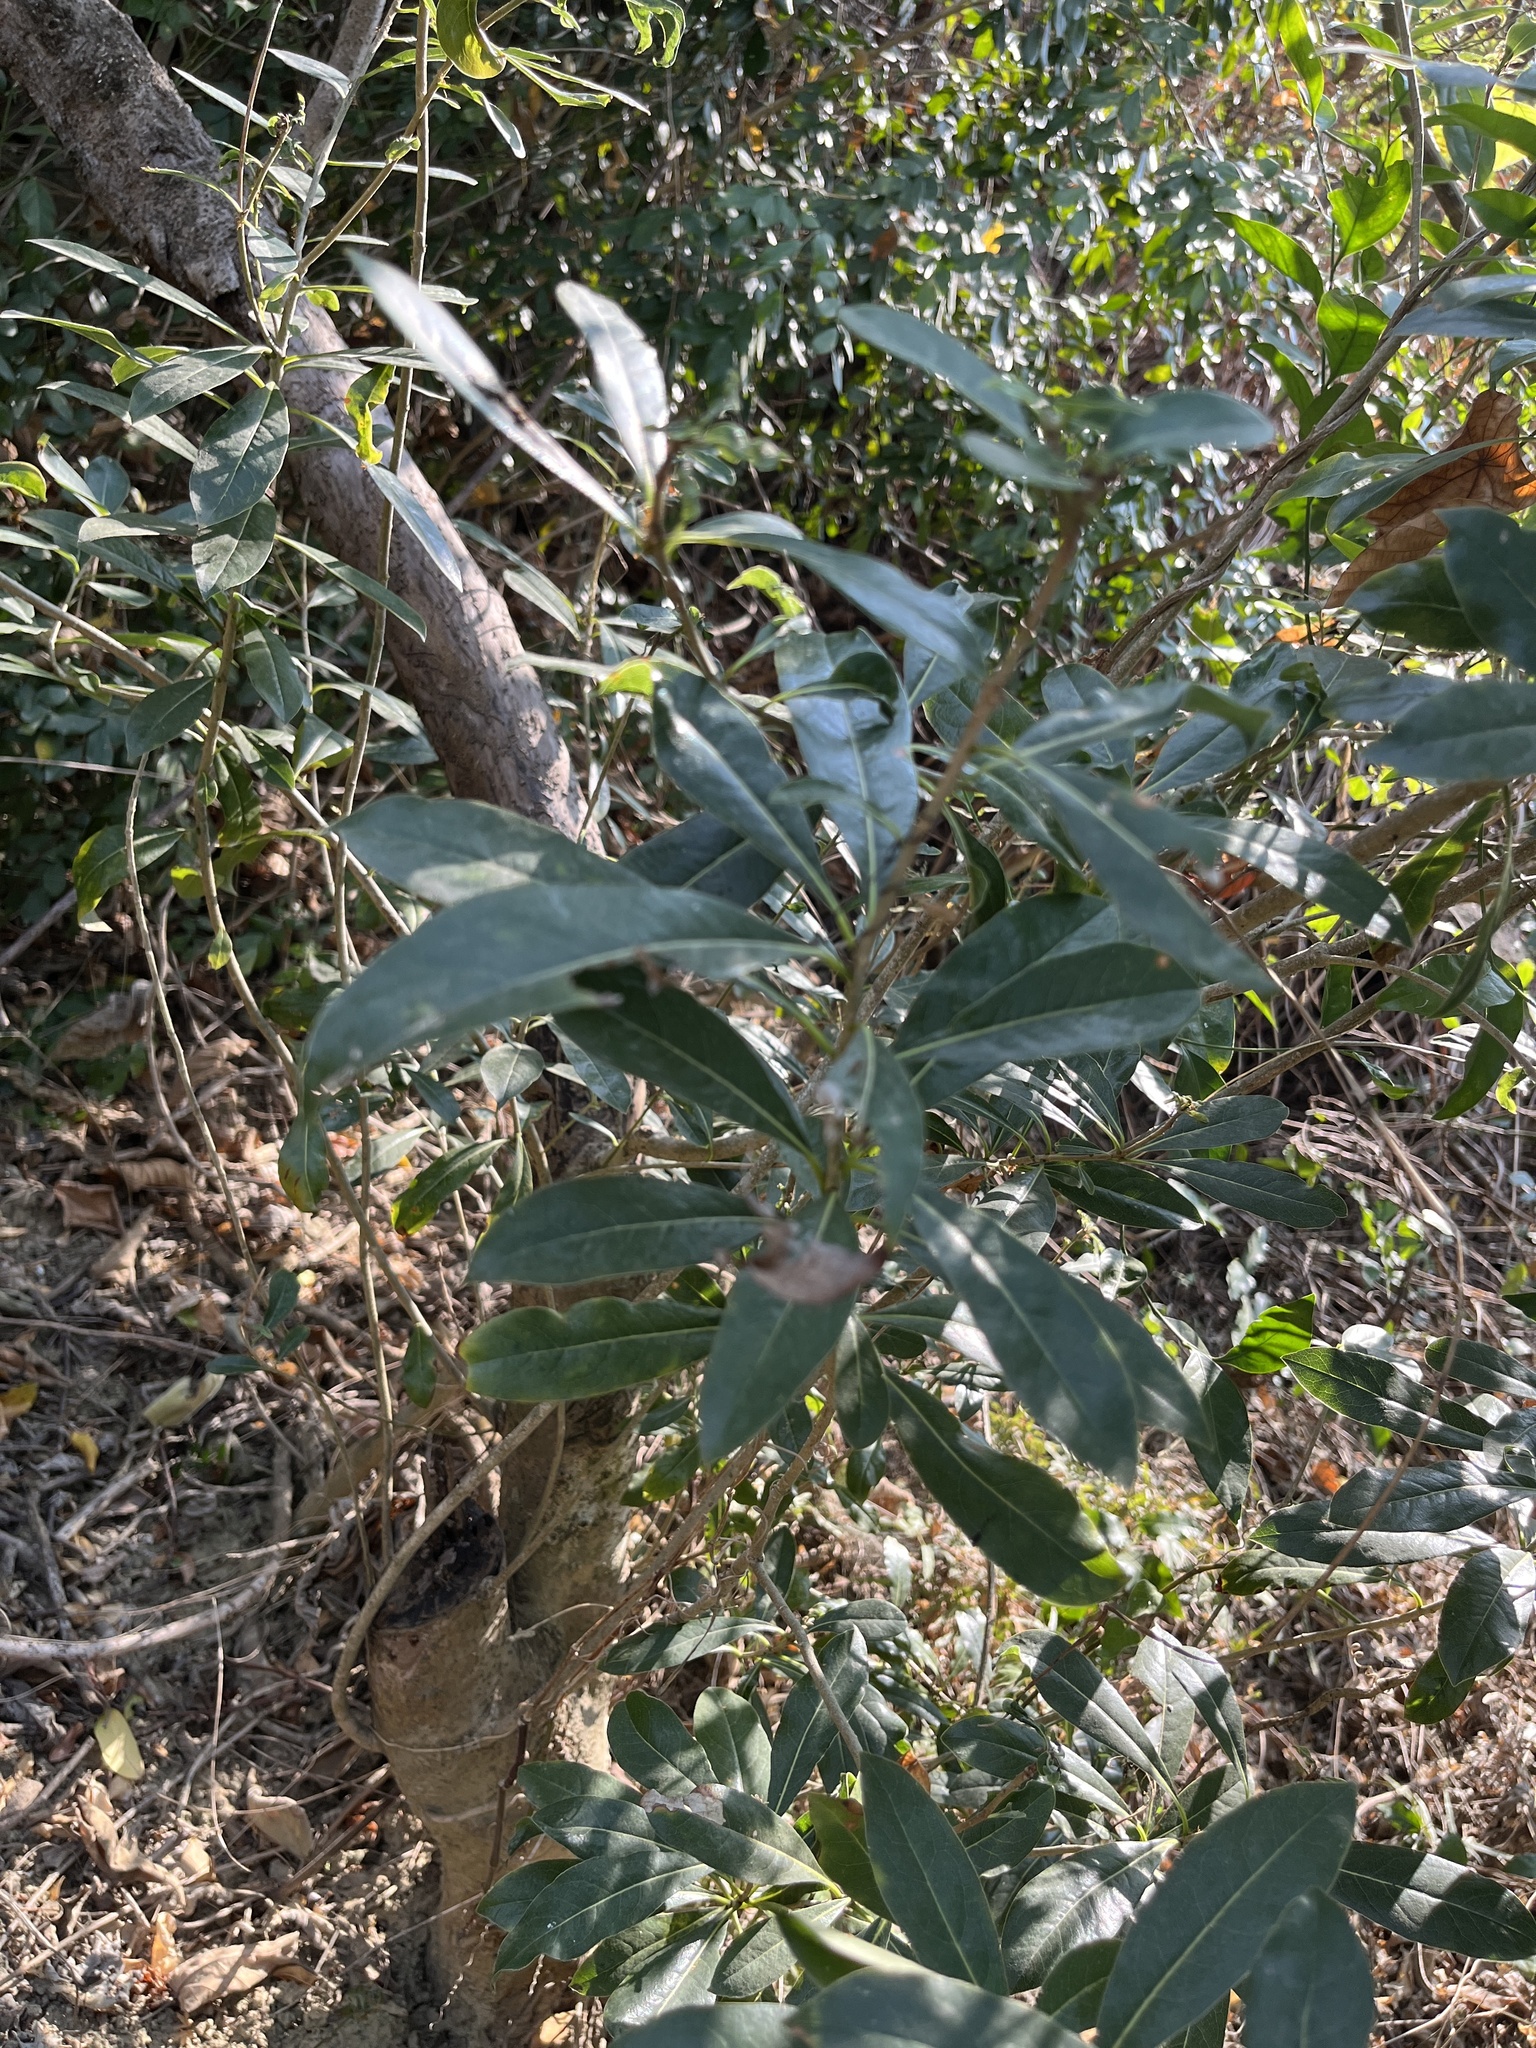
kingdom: Plantae
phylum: Tracheophyta
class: Magnoliopsida
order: Apiales
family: Pittosporaceae
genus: Pittosporum
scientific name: Pittosporum pentandrum
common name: Taiwanese cheesewood
